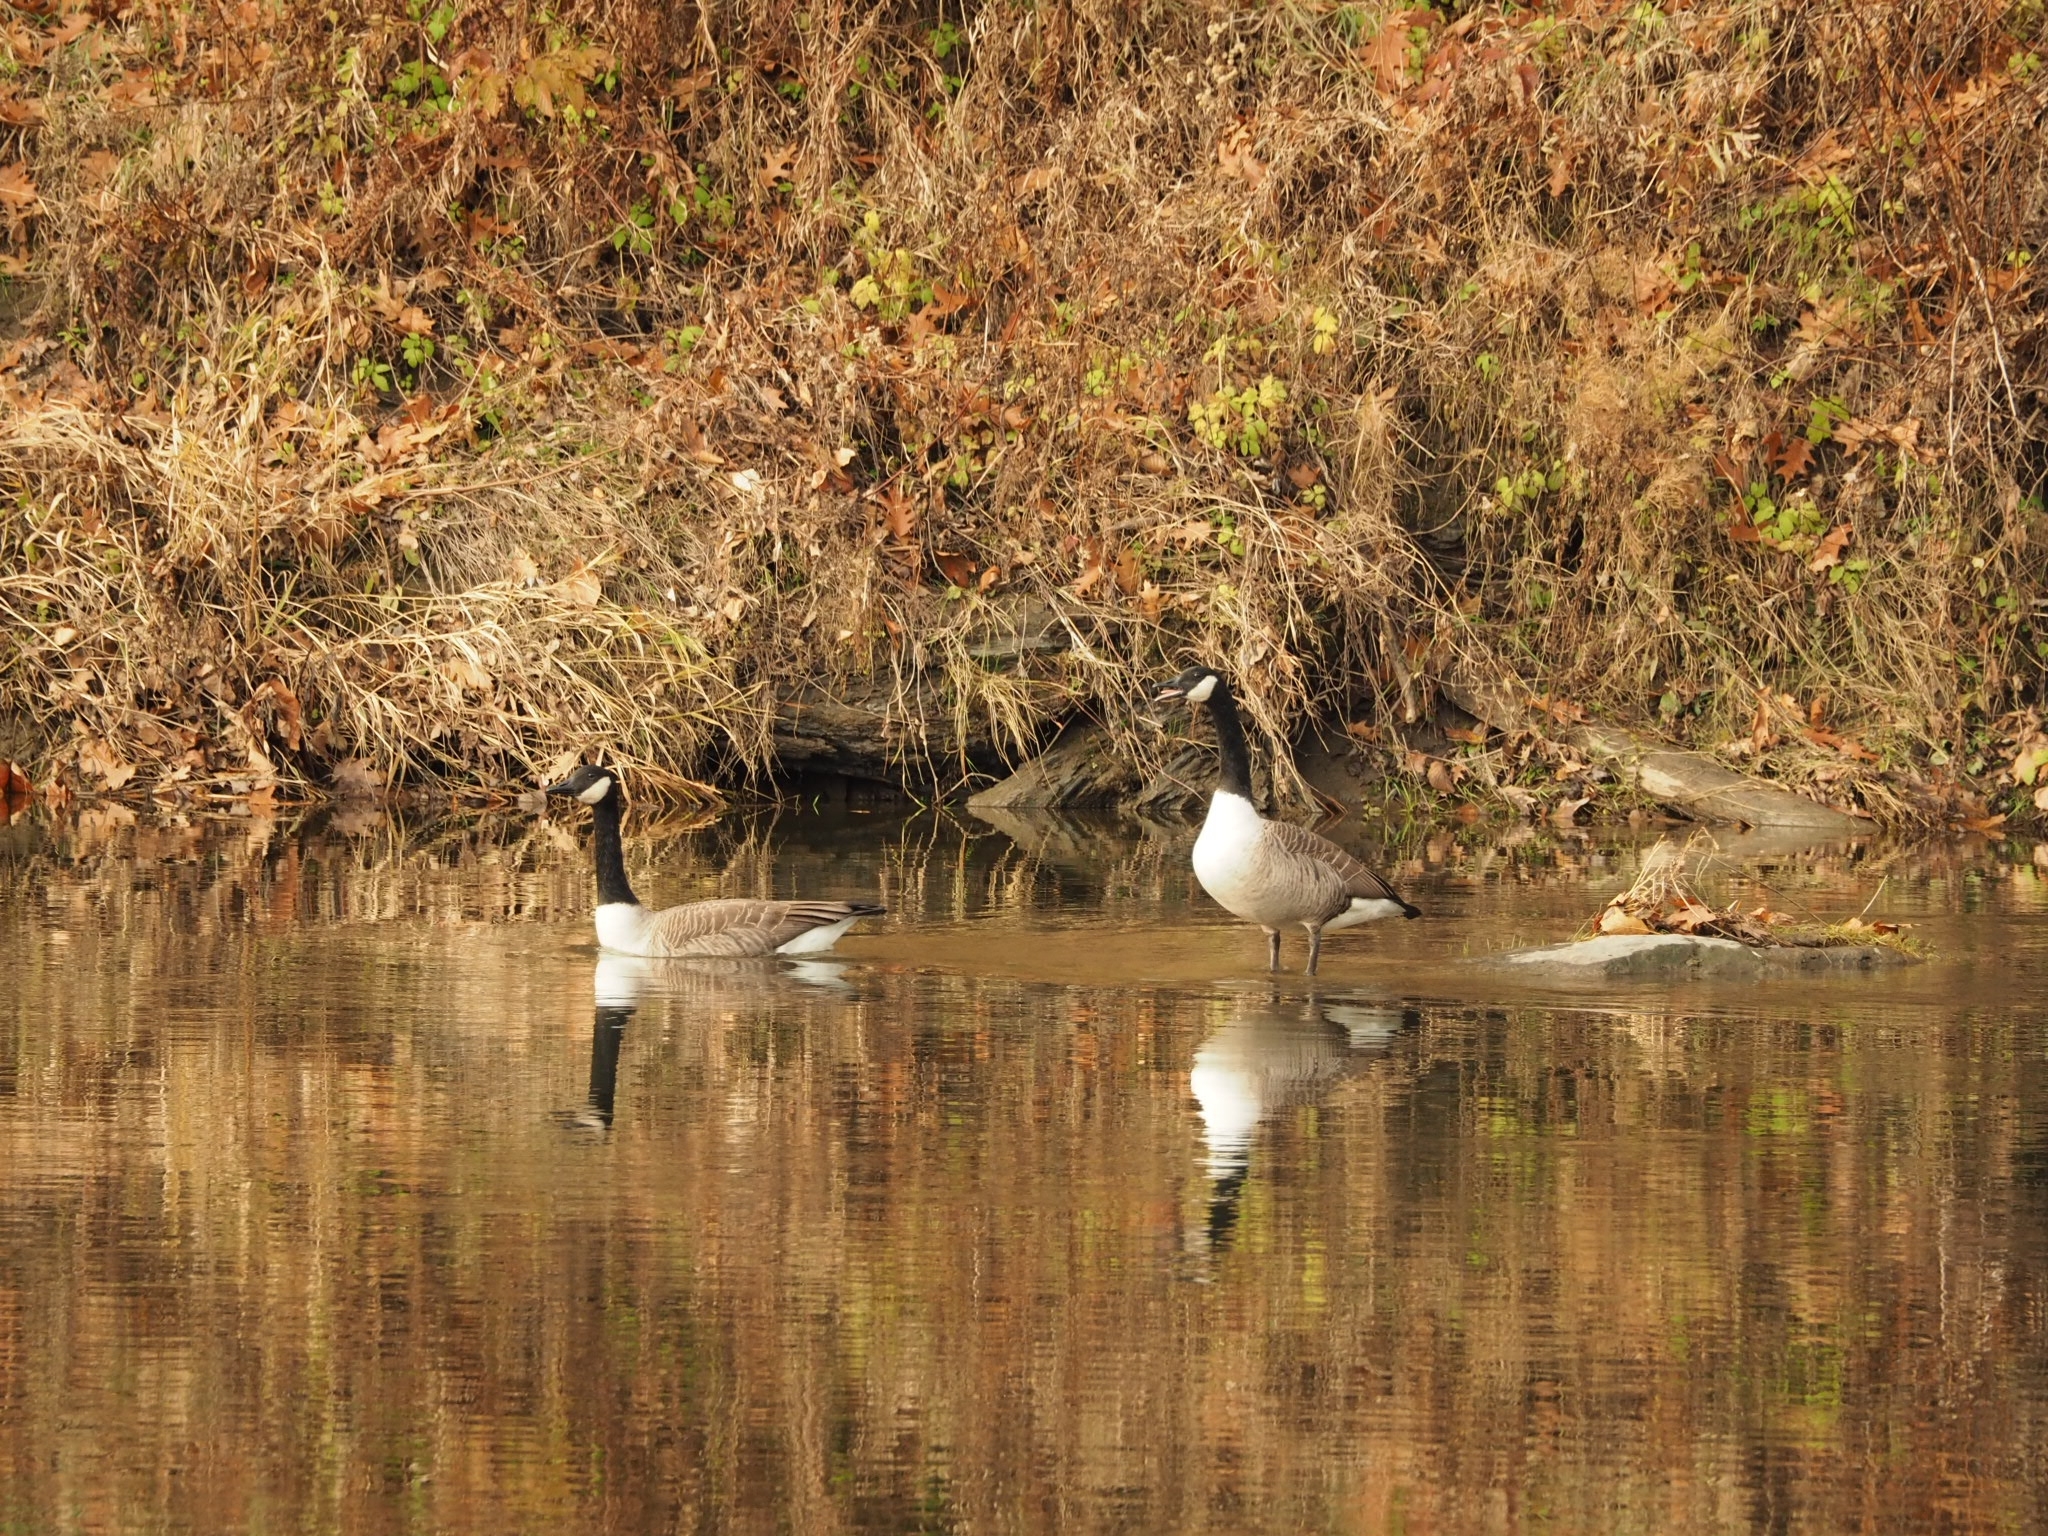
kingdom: Animalia
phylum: Chordata
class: Aves
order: Anseriformes
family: Anatidae
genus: Branta
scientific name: Branta canadensis
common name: Canada goose
